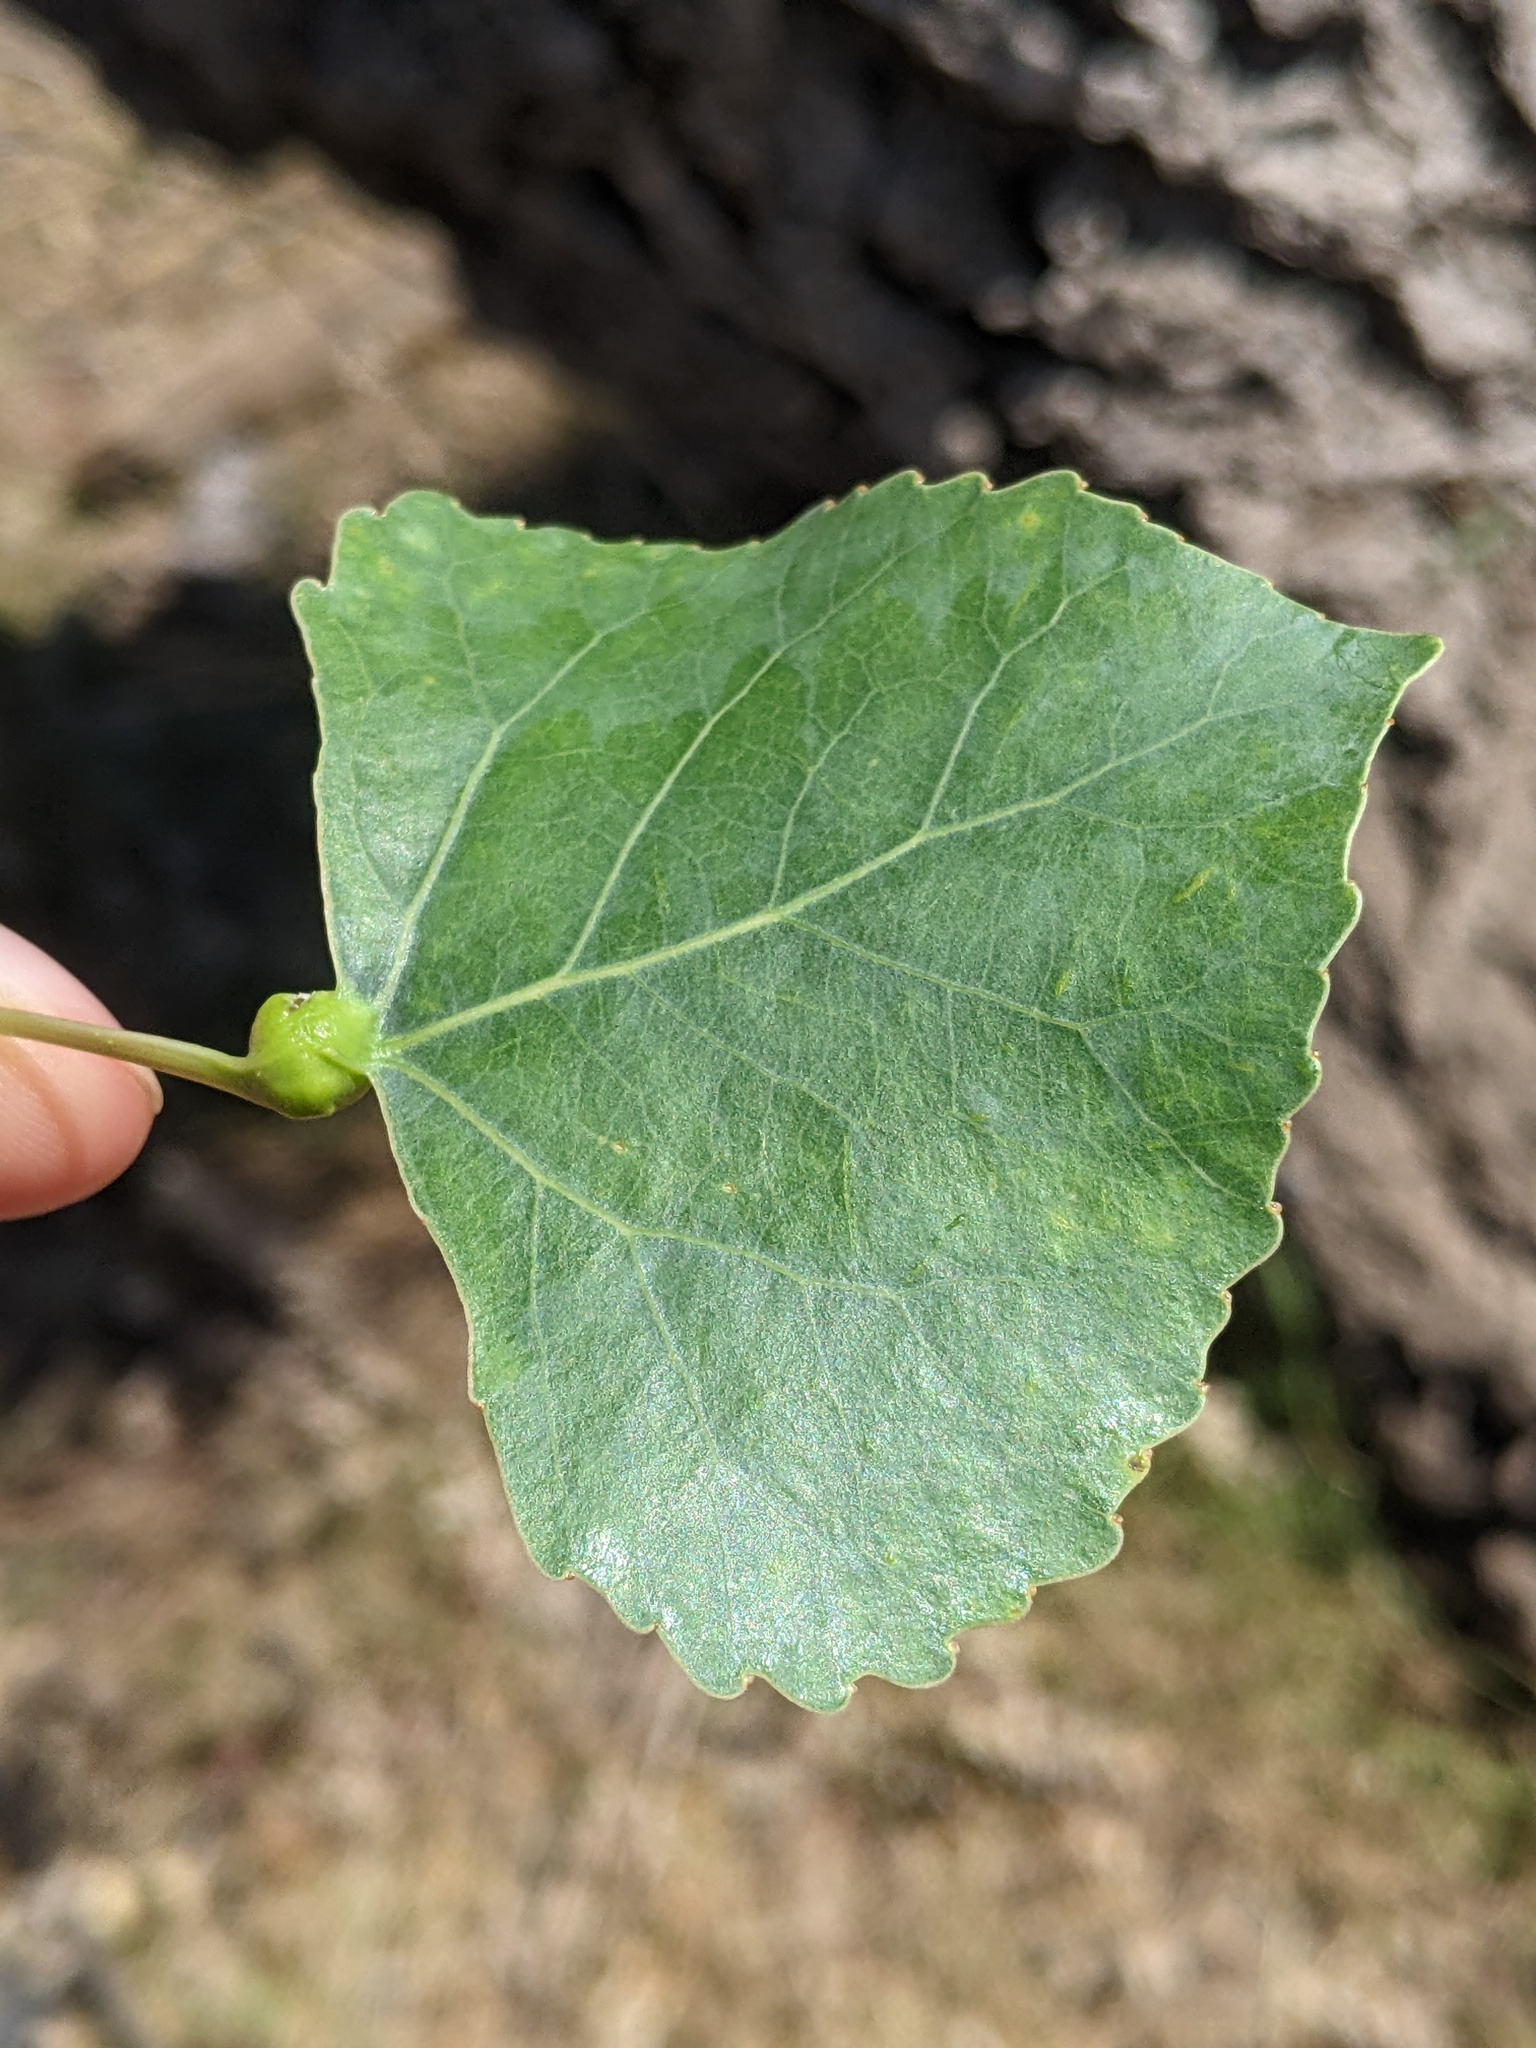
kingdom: Animalia
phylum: Arthropoda
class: Insecta
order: Hemiptera
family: Aphididae
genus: Pemphigus
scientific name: Pemphigus obesinymphae
